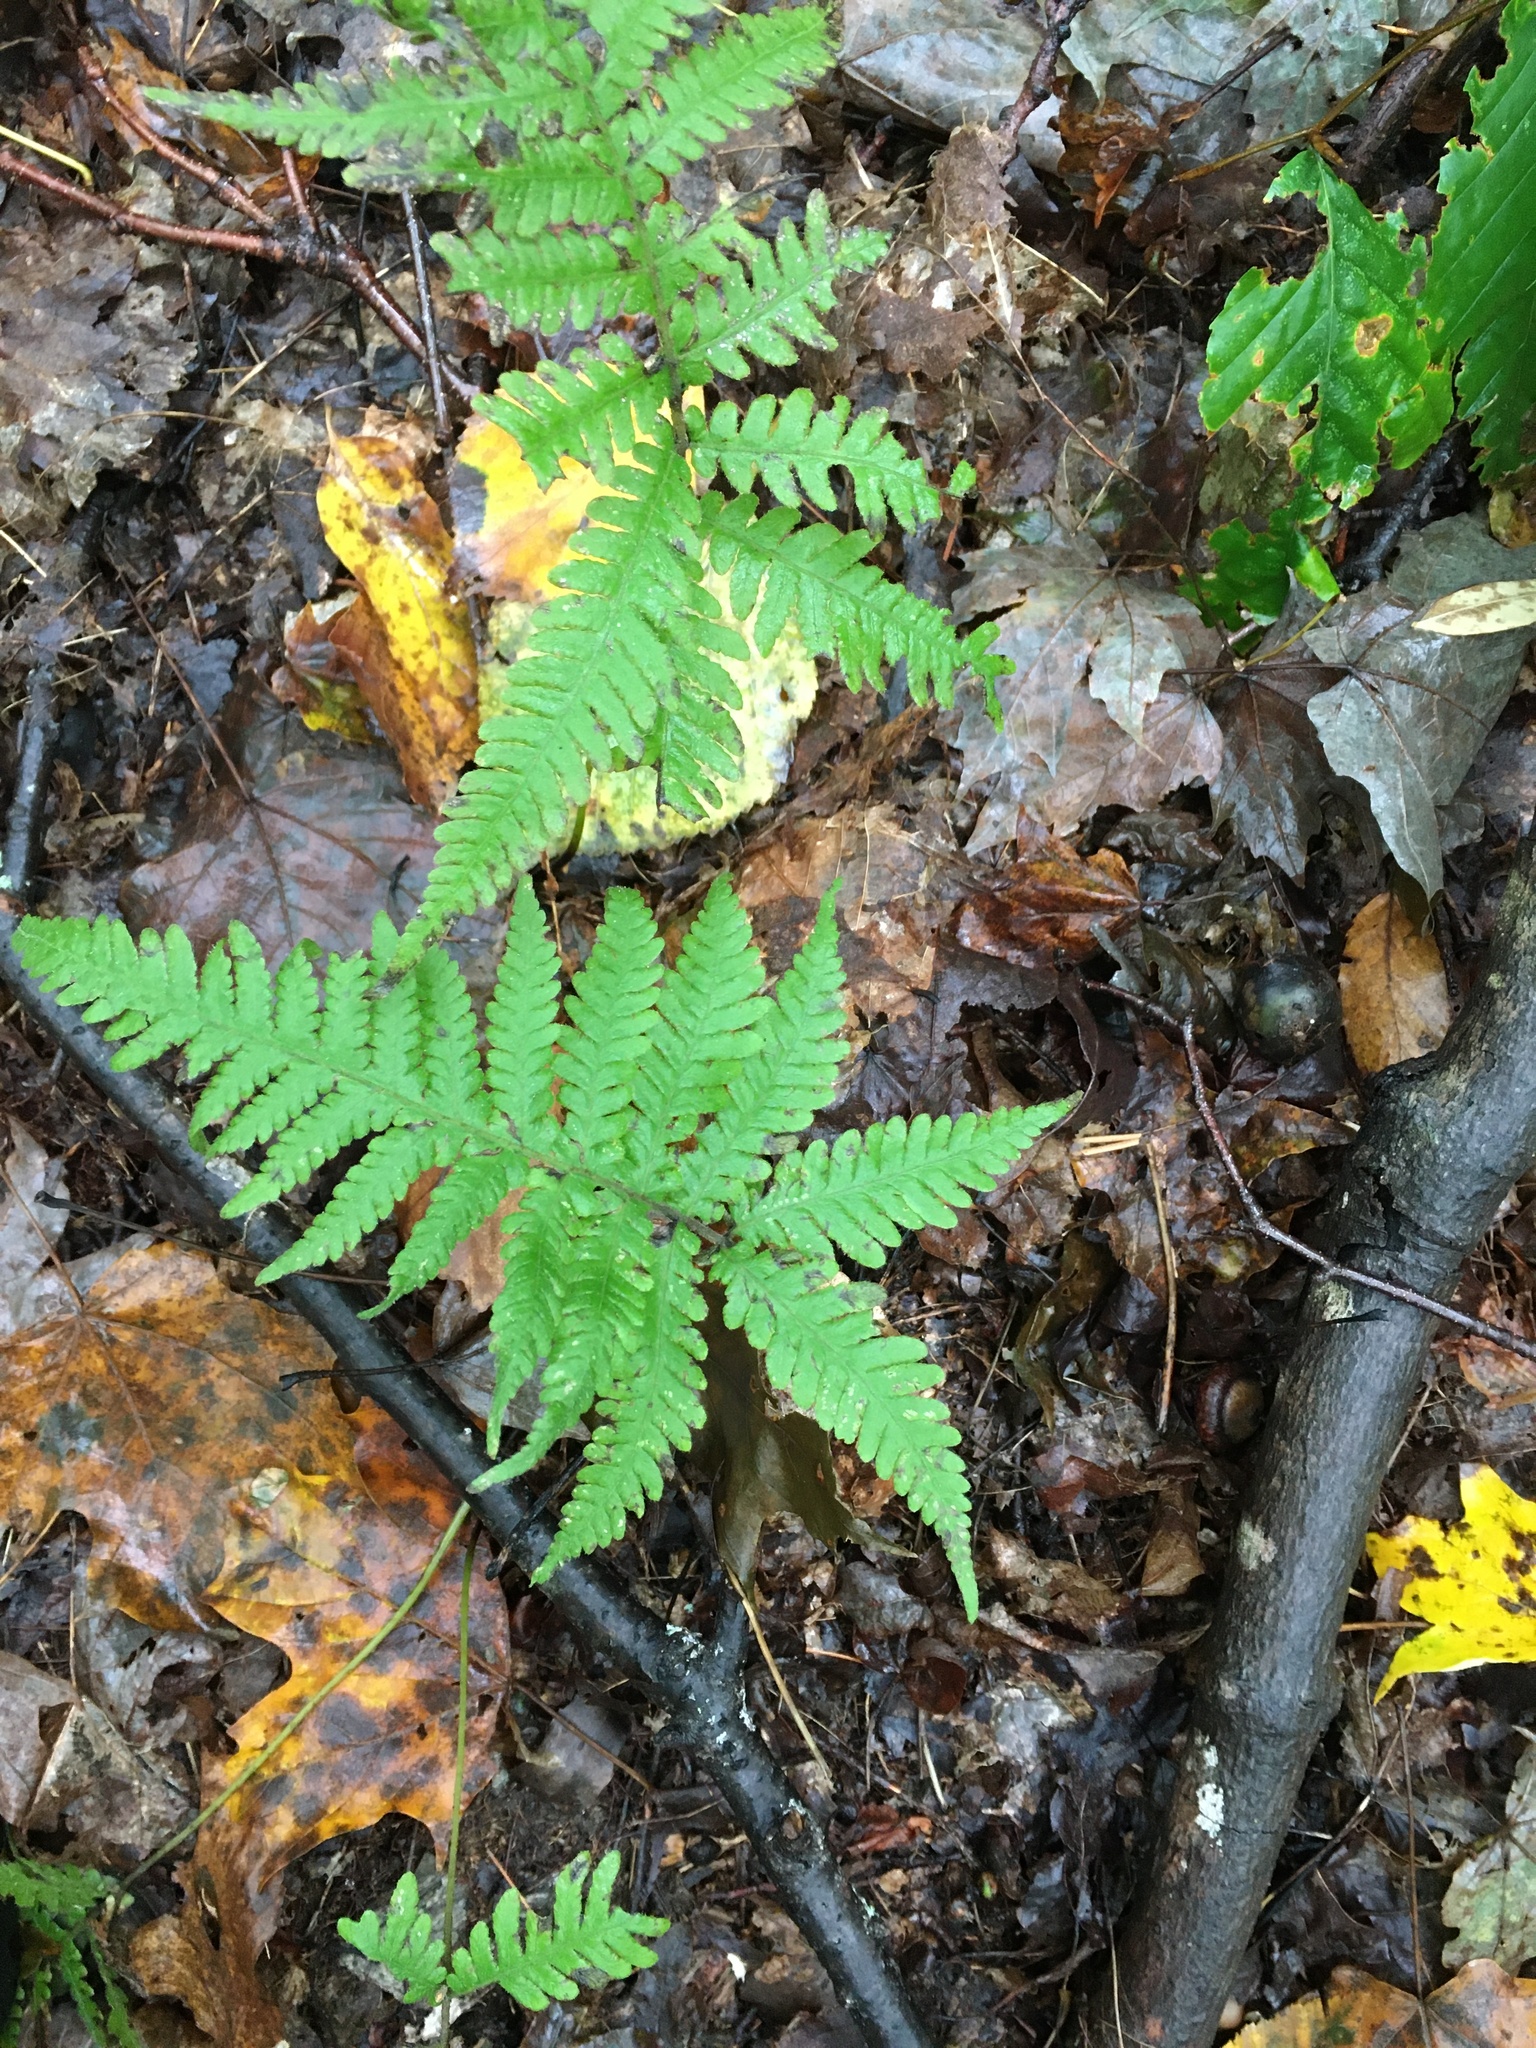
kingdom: Plantae
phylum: Tracheophyta
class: Polypodiopsida
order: Polypodiales
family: Thelypteridaceae
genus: Phegopteris
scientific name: Phegopteris connectilis
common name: Beech fern
